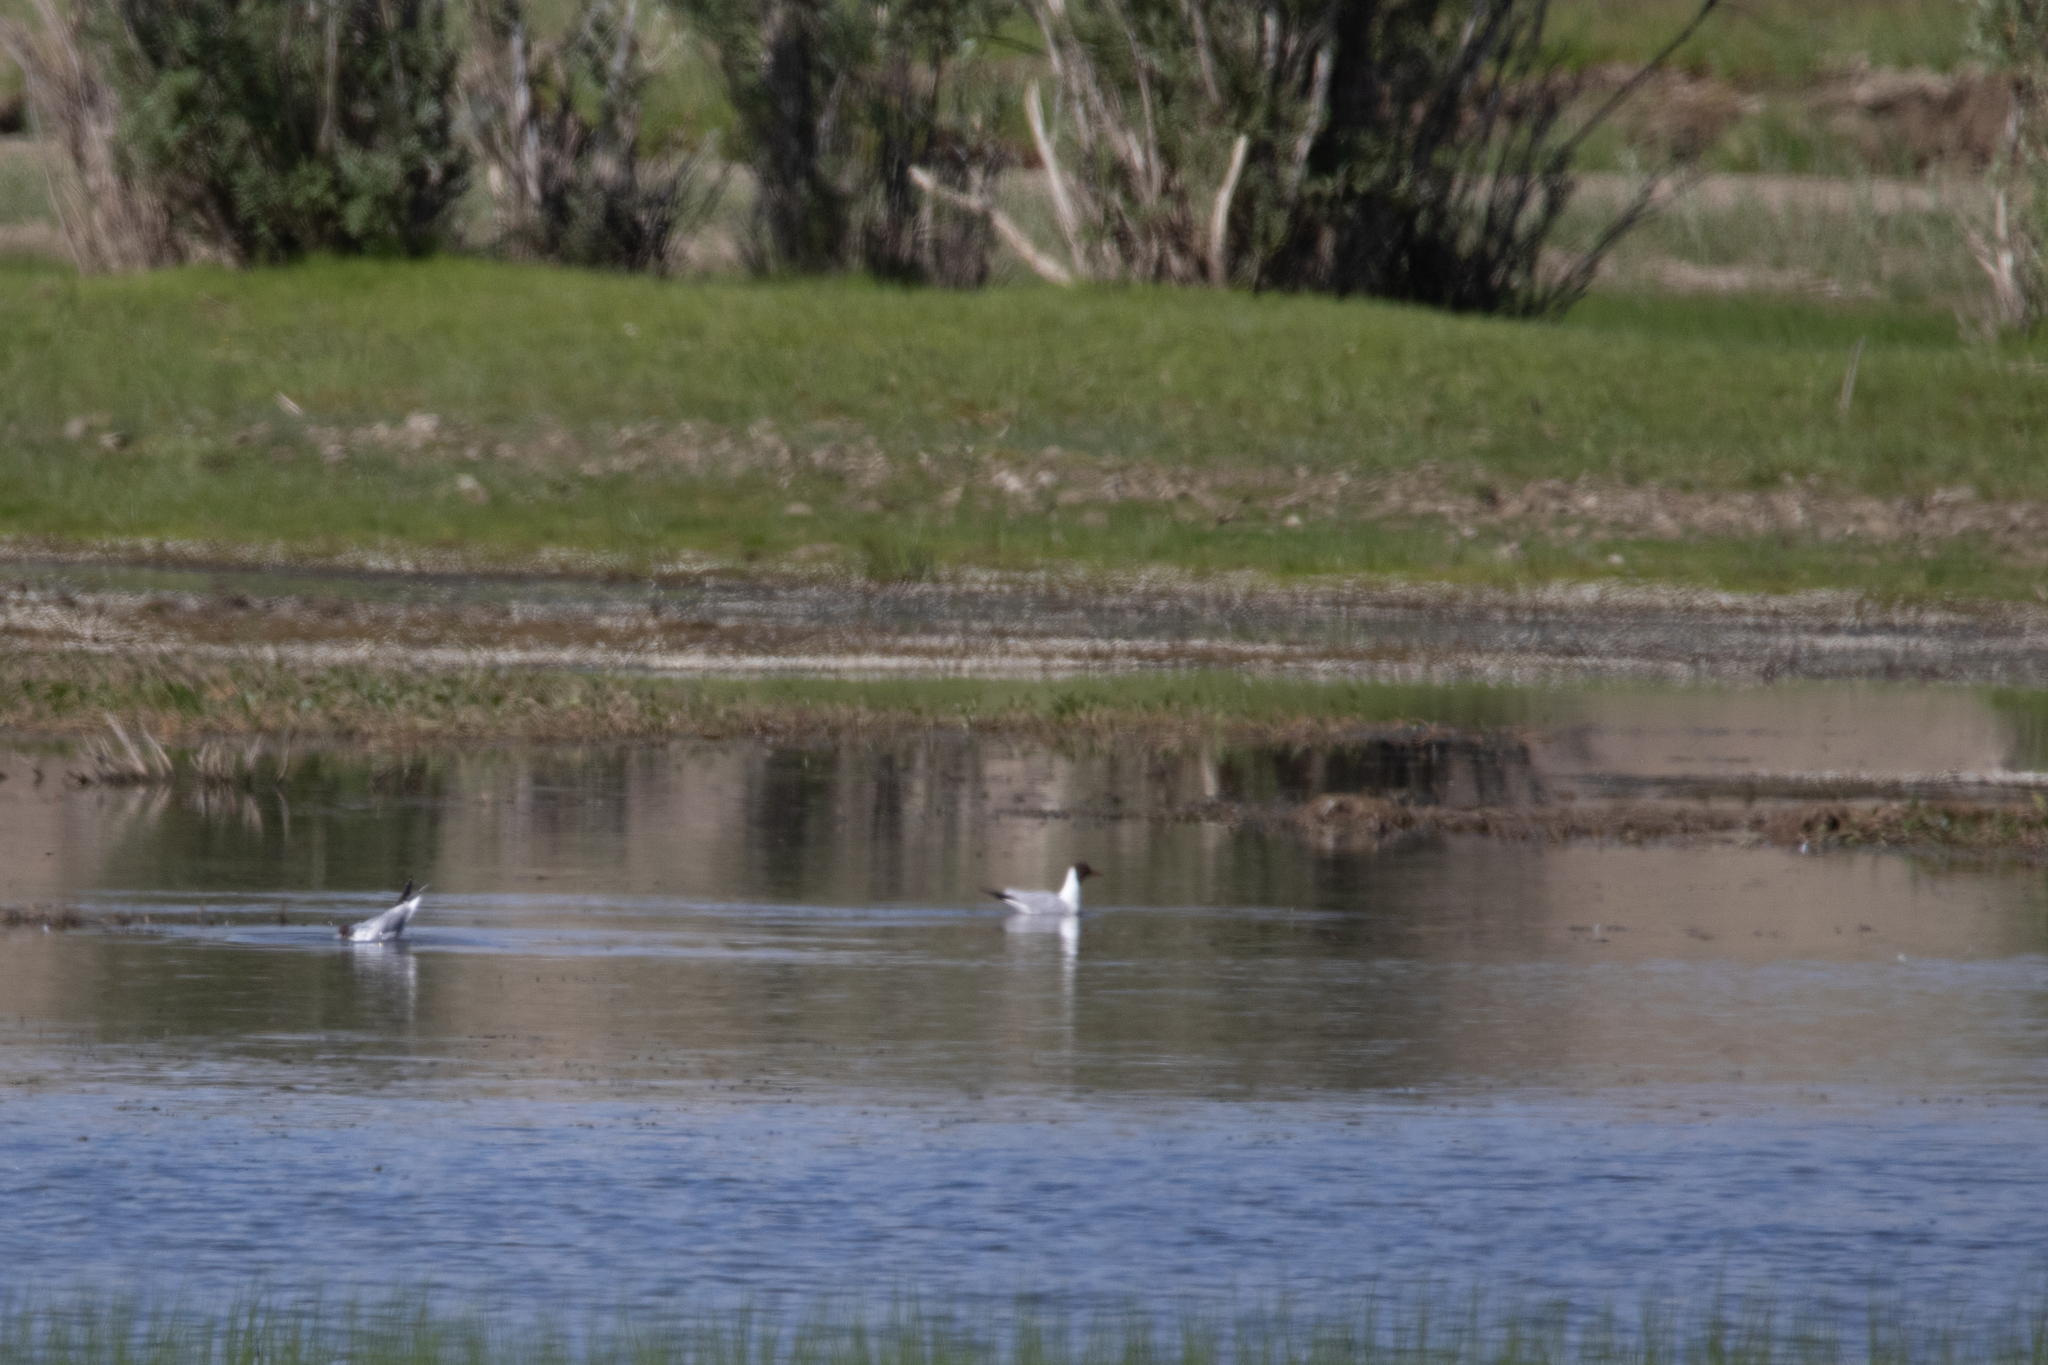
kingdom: Animalia
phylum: Chordata
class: Aves
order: Charadriiformes
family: Laridae
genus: Chroicocephalus
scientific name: Chroicocephalus ridibundus
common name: Black-headed gull
